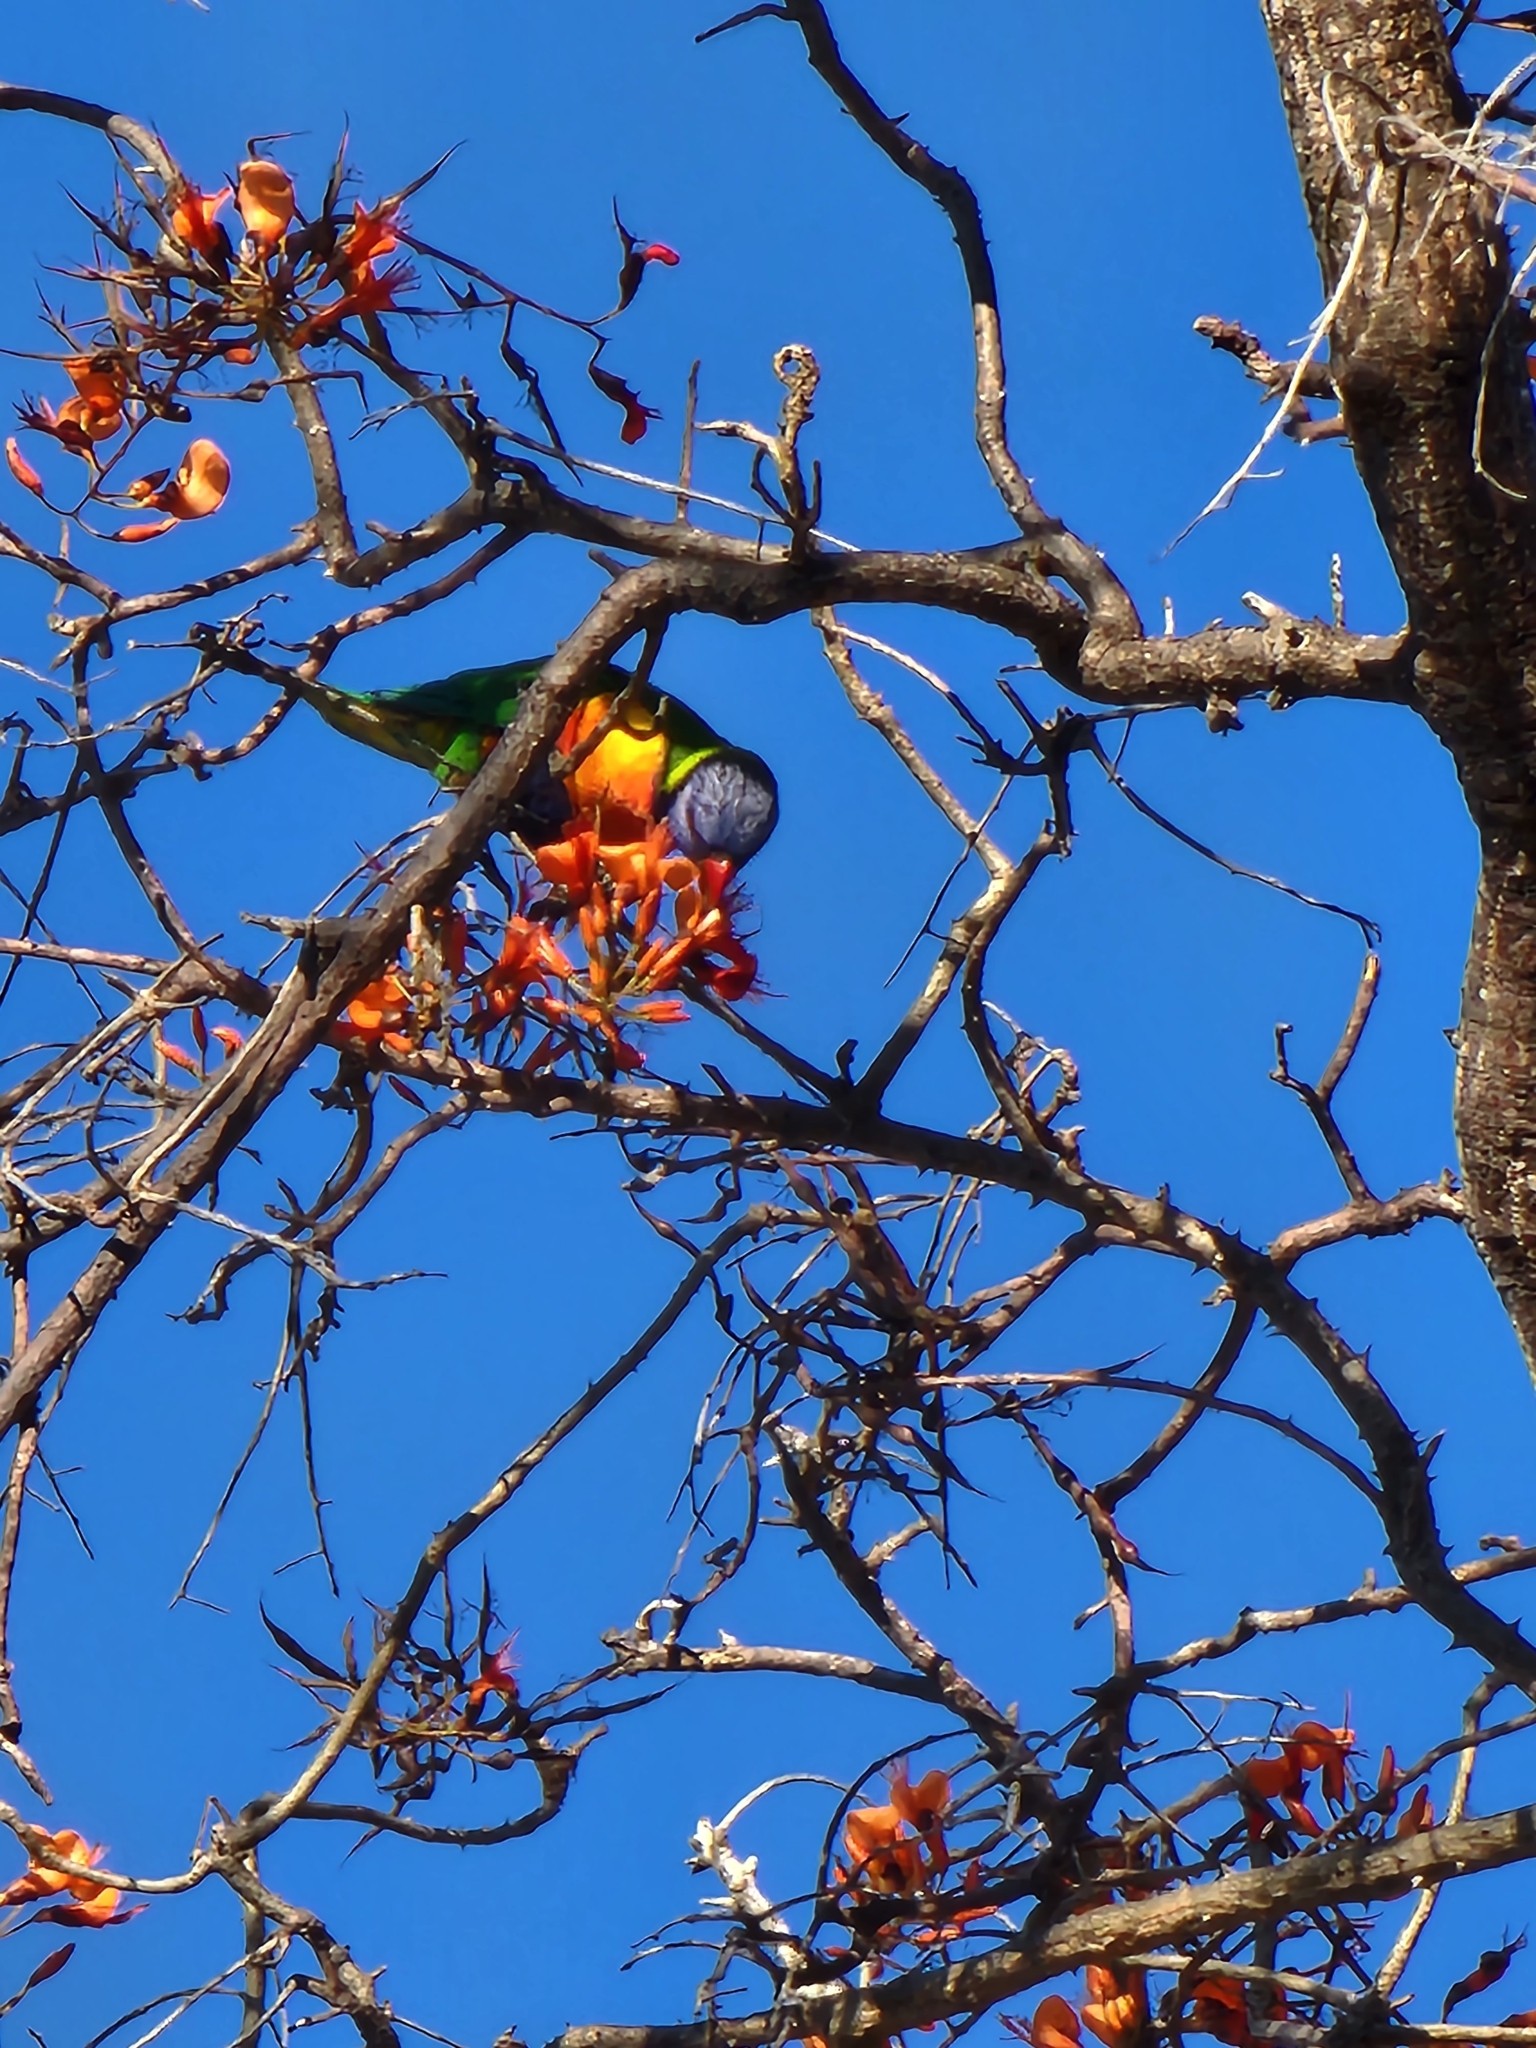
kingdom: Animalia
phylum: Chordata
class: Aves
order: Psittaciformes
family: Psittacidae
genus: Trichoglossus
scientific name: Trichoglossus haematodus
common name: Coconut lorikeet
